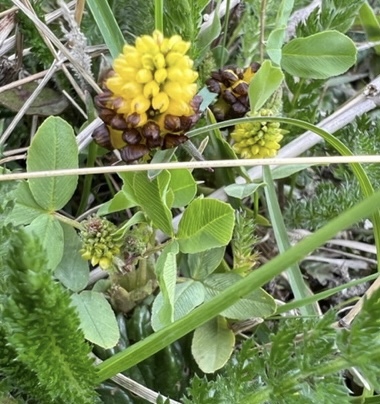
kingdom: Plantae
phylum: Tracheophyta
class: Magnoliopsida
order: Fabales
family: Fabaceae
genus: Trifolium
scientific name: Trifolium spadiceum
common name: Brown moor clover
